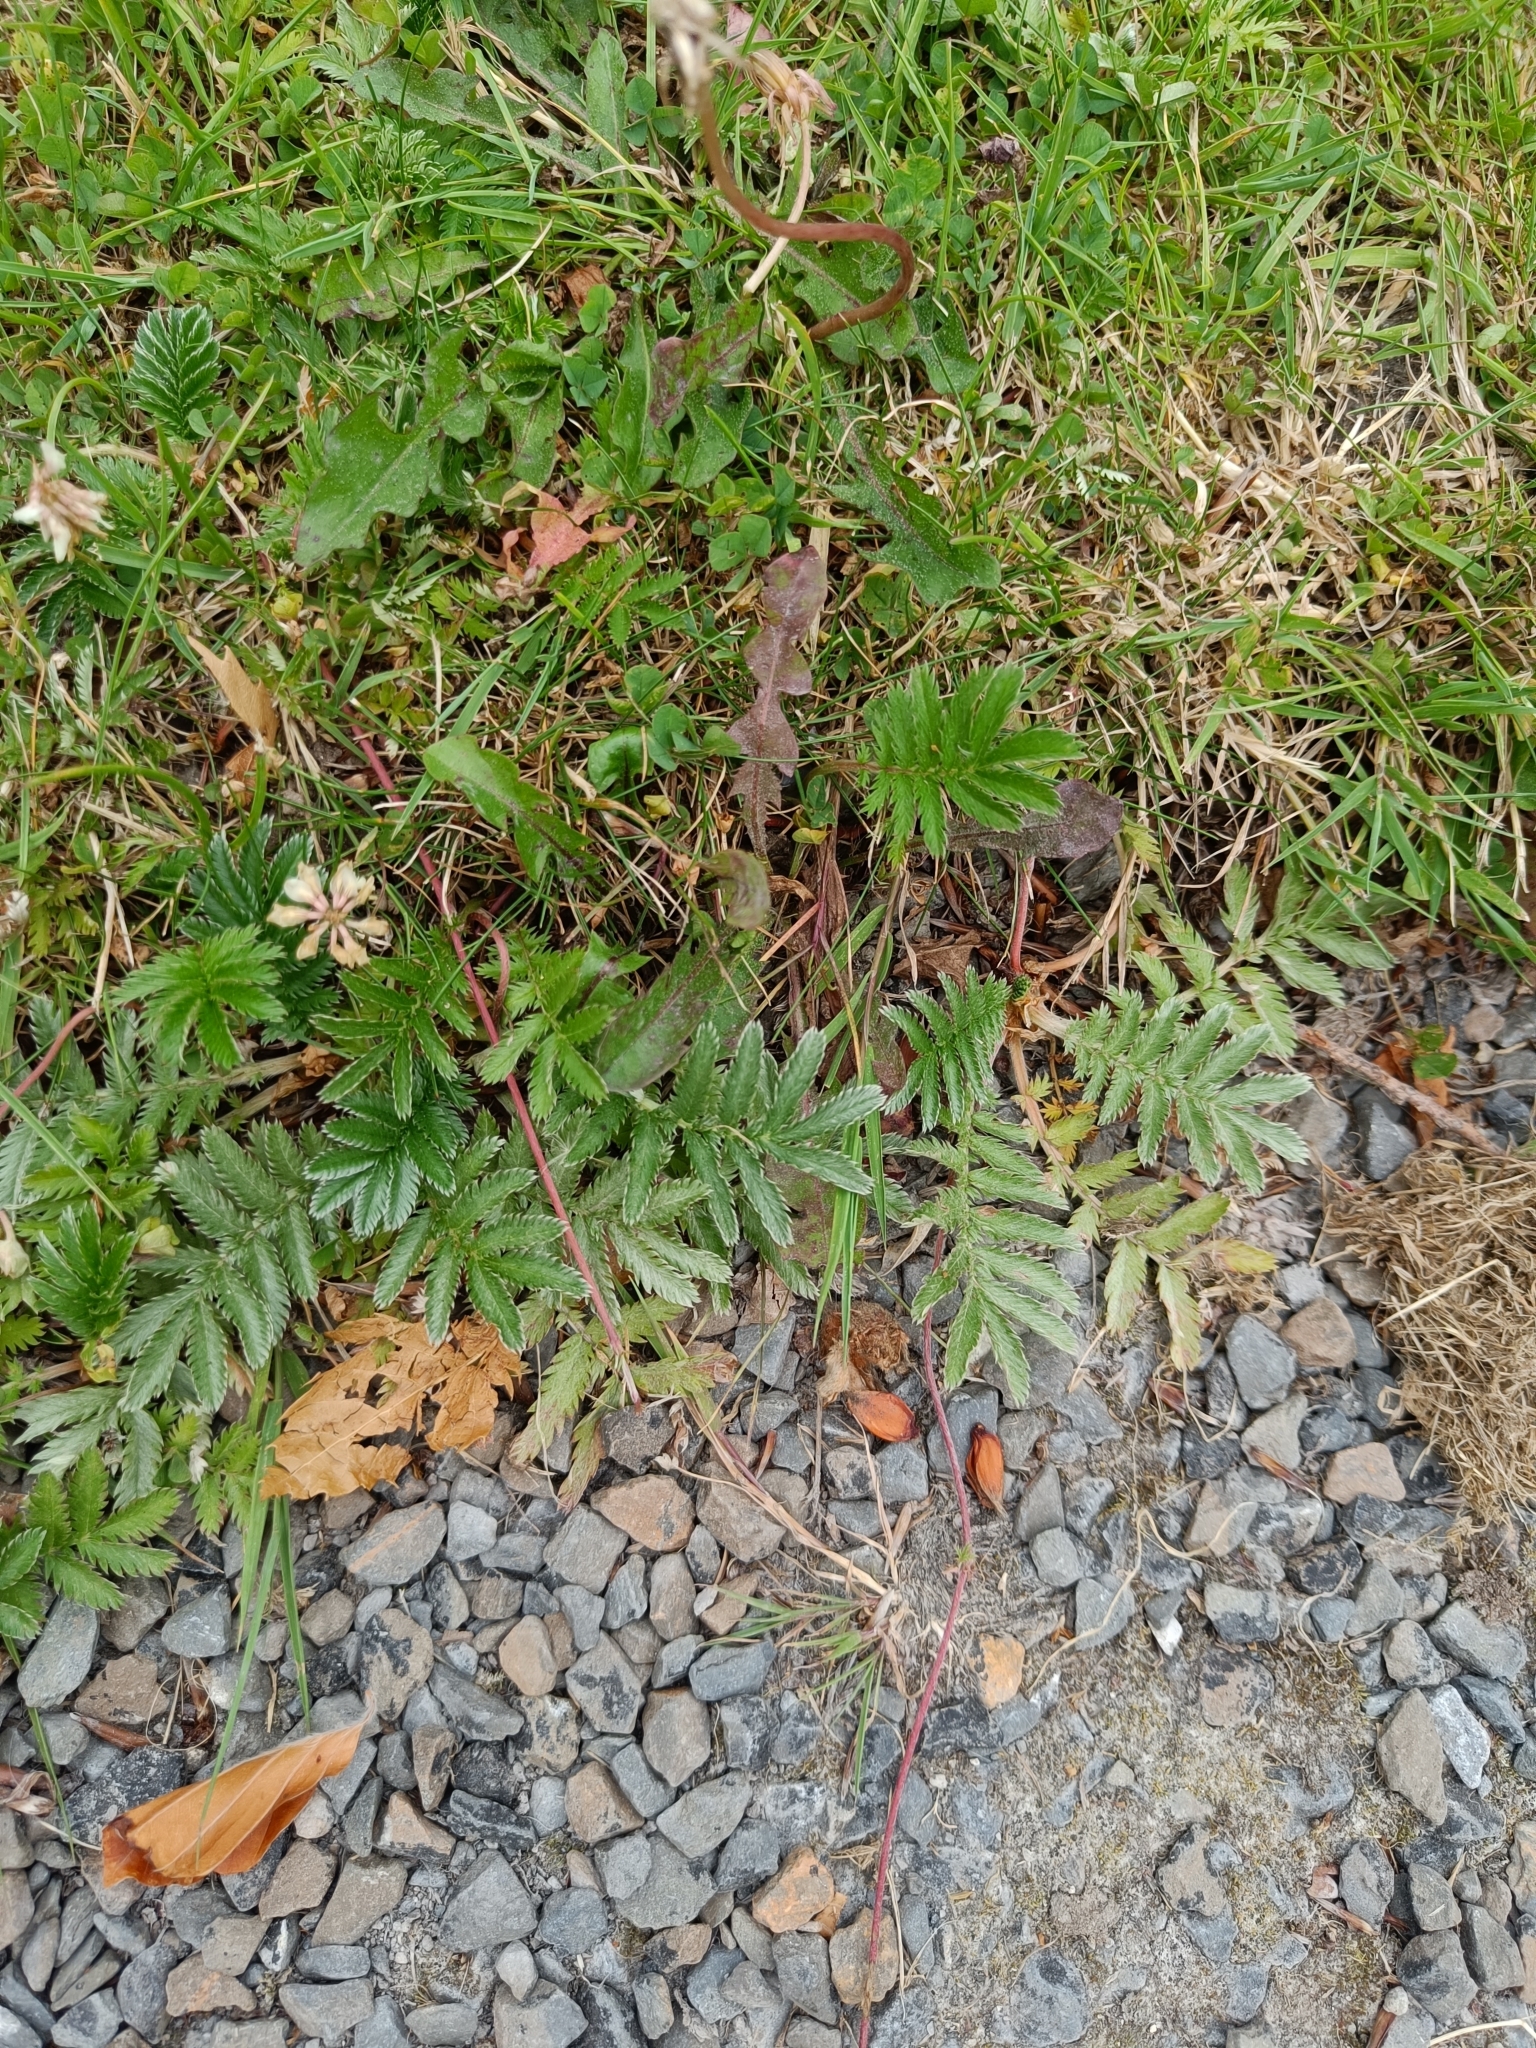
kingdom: Plantae
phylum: Tracheophyta
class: Magnoliopsida
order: Rosales
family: Rosaceae
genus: Argentina
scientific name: Argentina anserina
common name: Common silverweed
